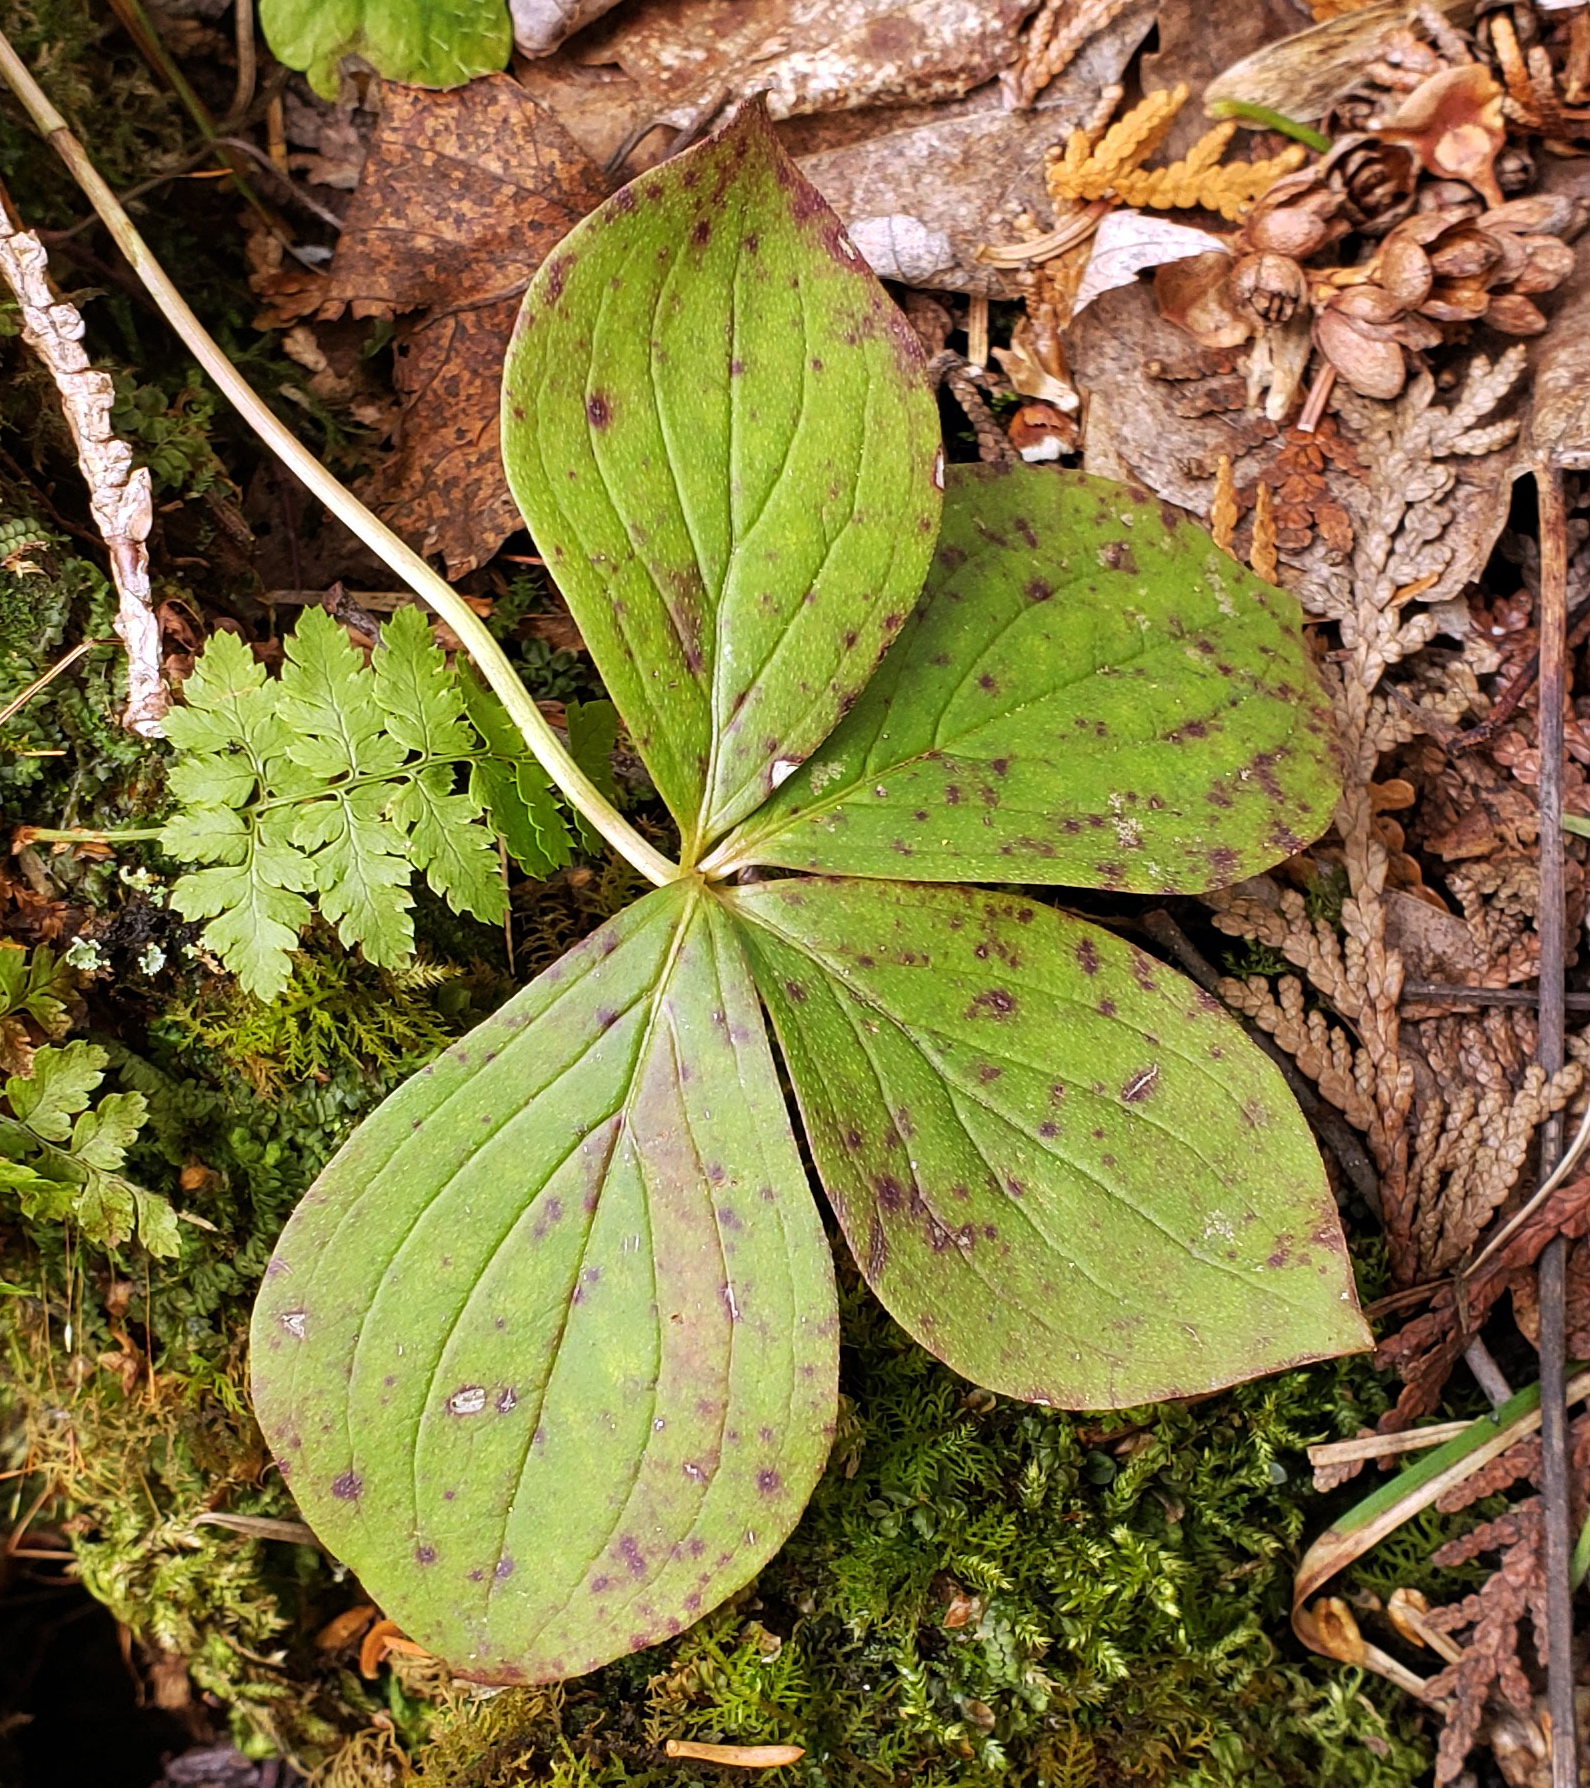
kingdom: Plantae
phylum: Tracheophyta
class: Magnoliopsida
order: Cornales
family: Cornaceae
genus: Cornus
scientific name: Cornus canadensis
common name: Creeping dogwood
